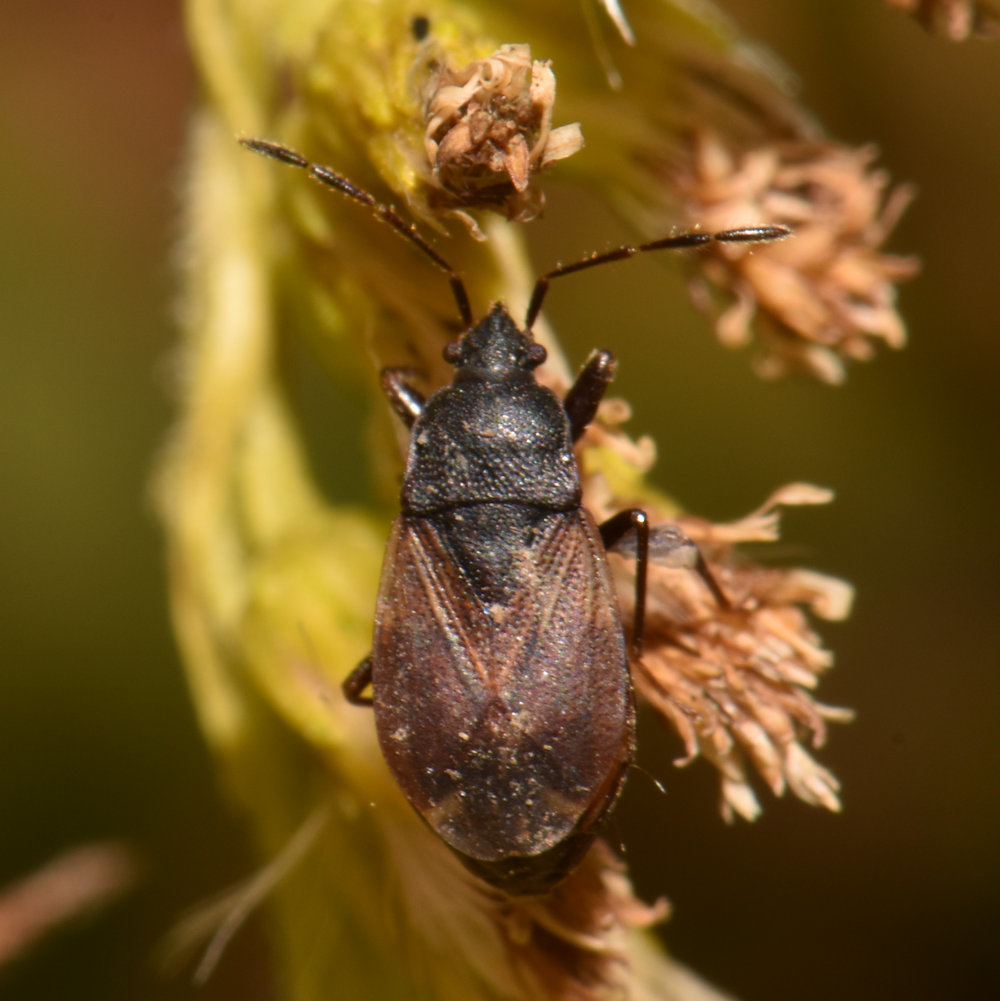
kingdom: Animalia
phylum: Arthropoda
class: Insecta
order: Hemiptera
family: Rhyparochromidae
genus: Drymus
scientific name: Drymus unus
